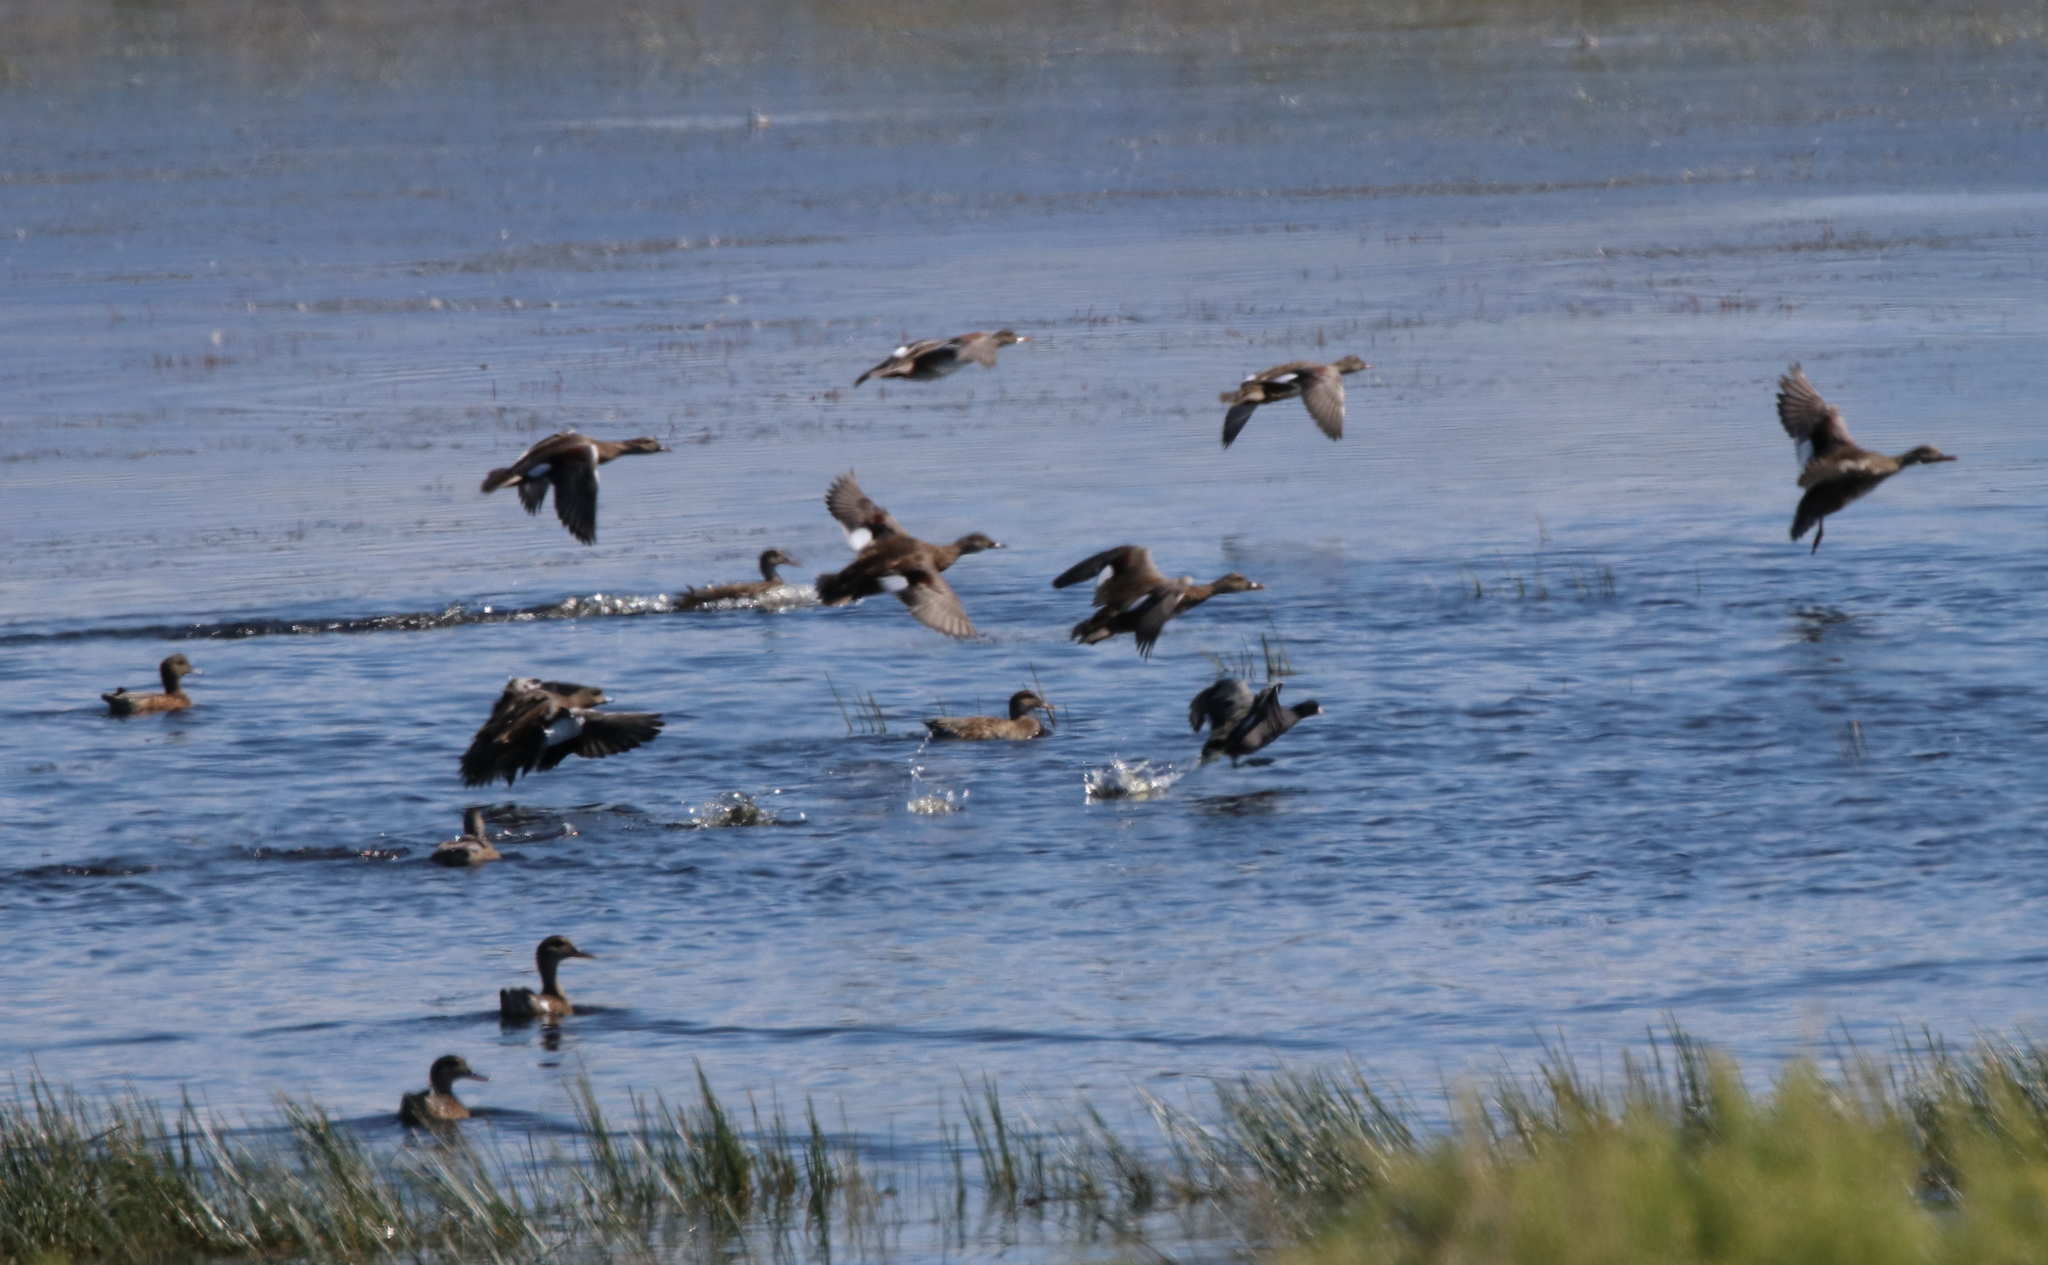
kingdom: Animalia
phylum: Chordata
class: Aves
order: Anseriformes
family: Anatidae
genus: Mareca
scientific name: Mareca strepera
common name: Gadwall
